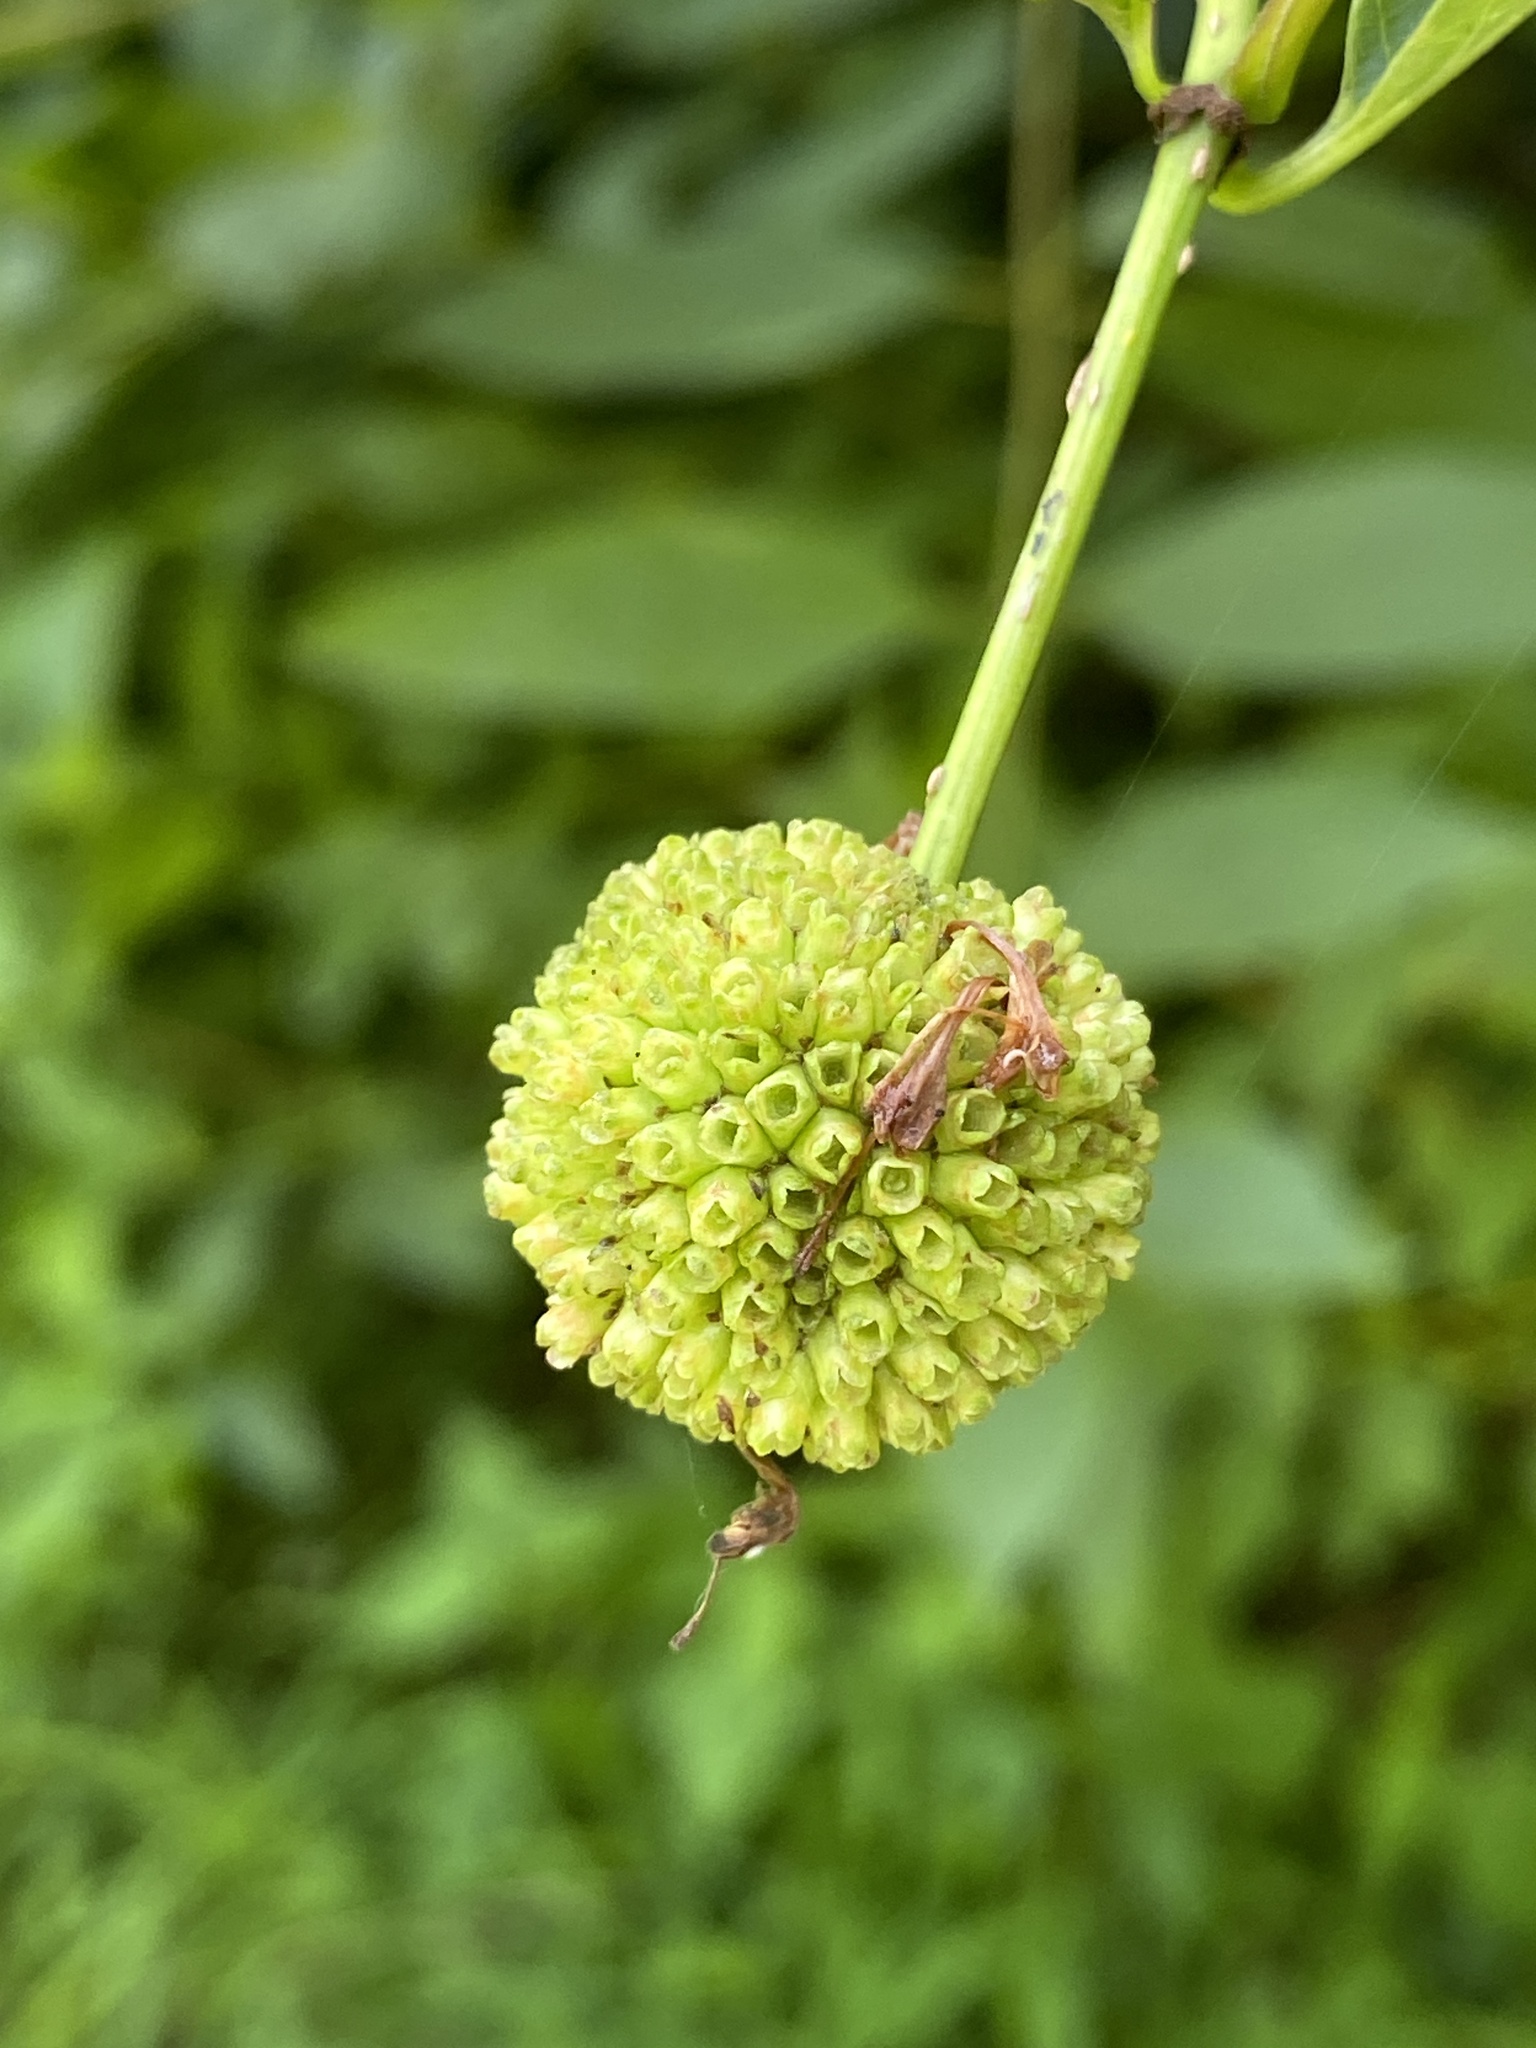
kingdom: Plantae
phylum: Tracheophyta
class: Magnoliopsida
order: Gentianales
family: Rubiaceae
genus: Cephalanthus
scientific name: Cephalanthus occidentalis
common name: Button-willow
